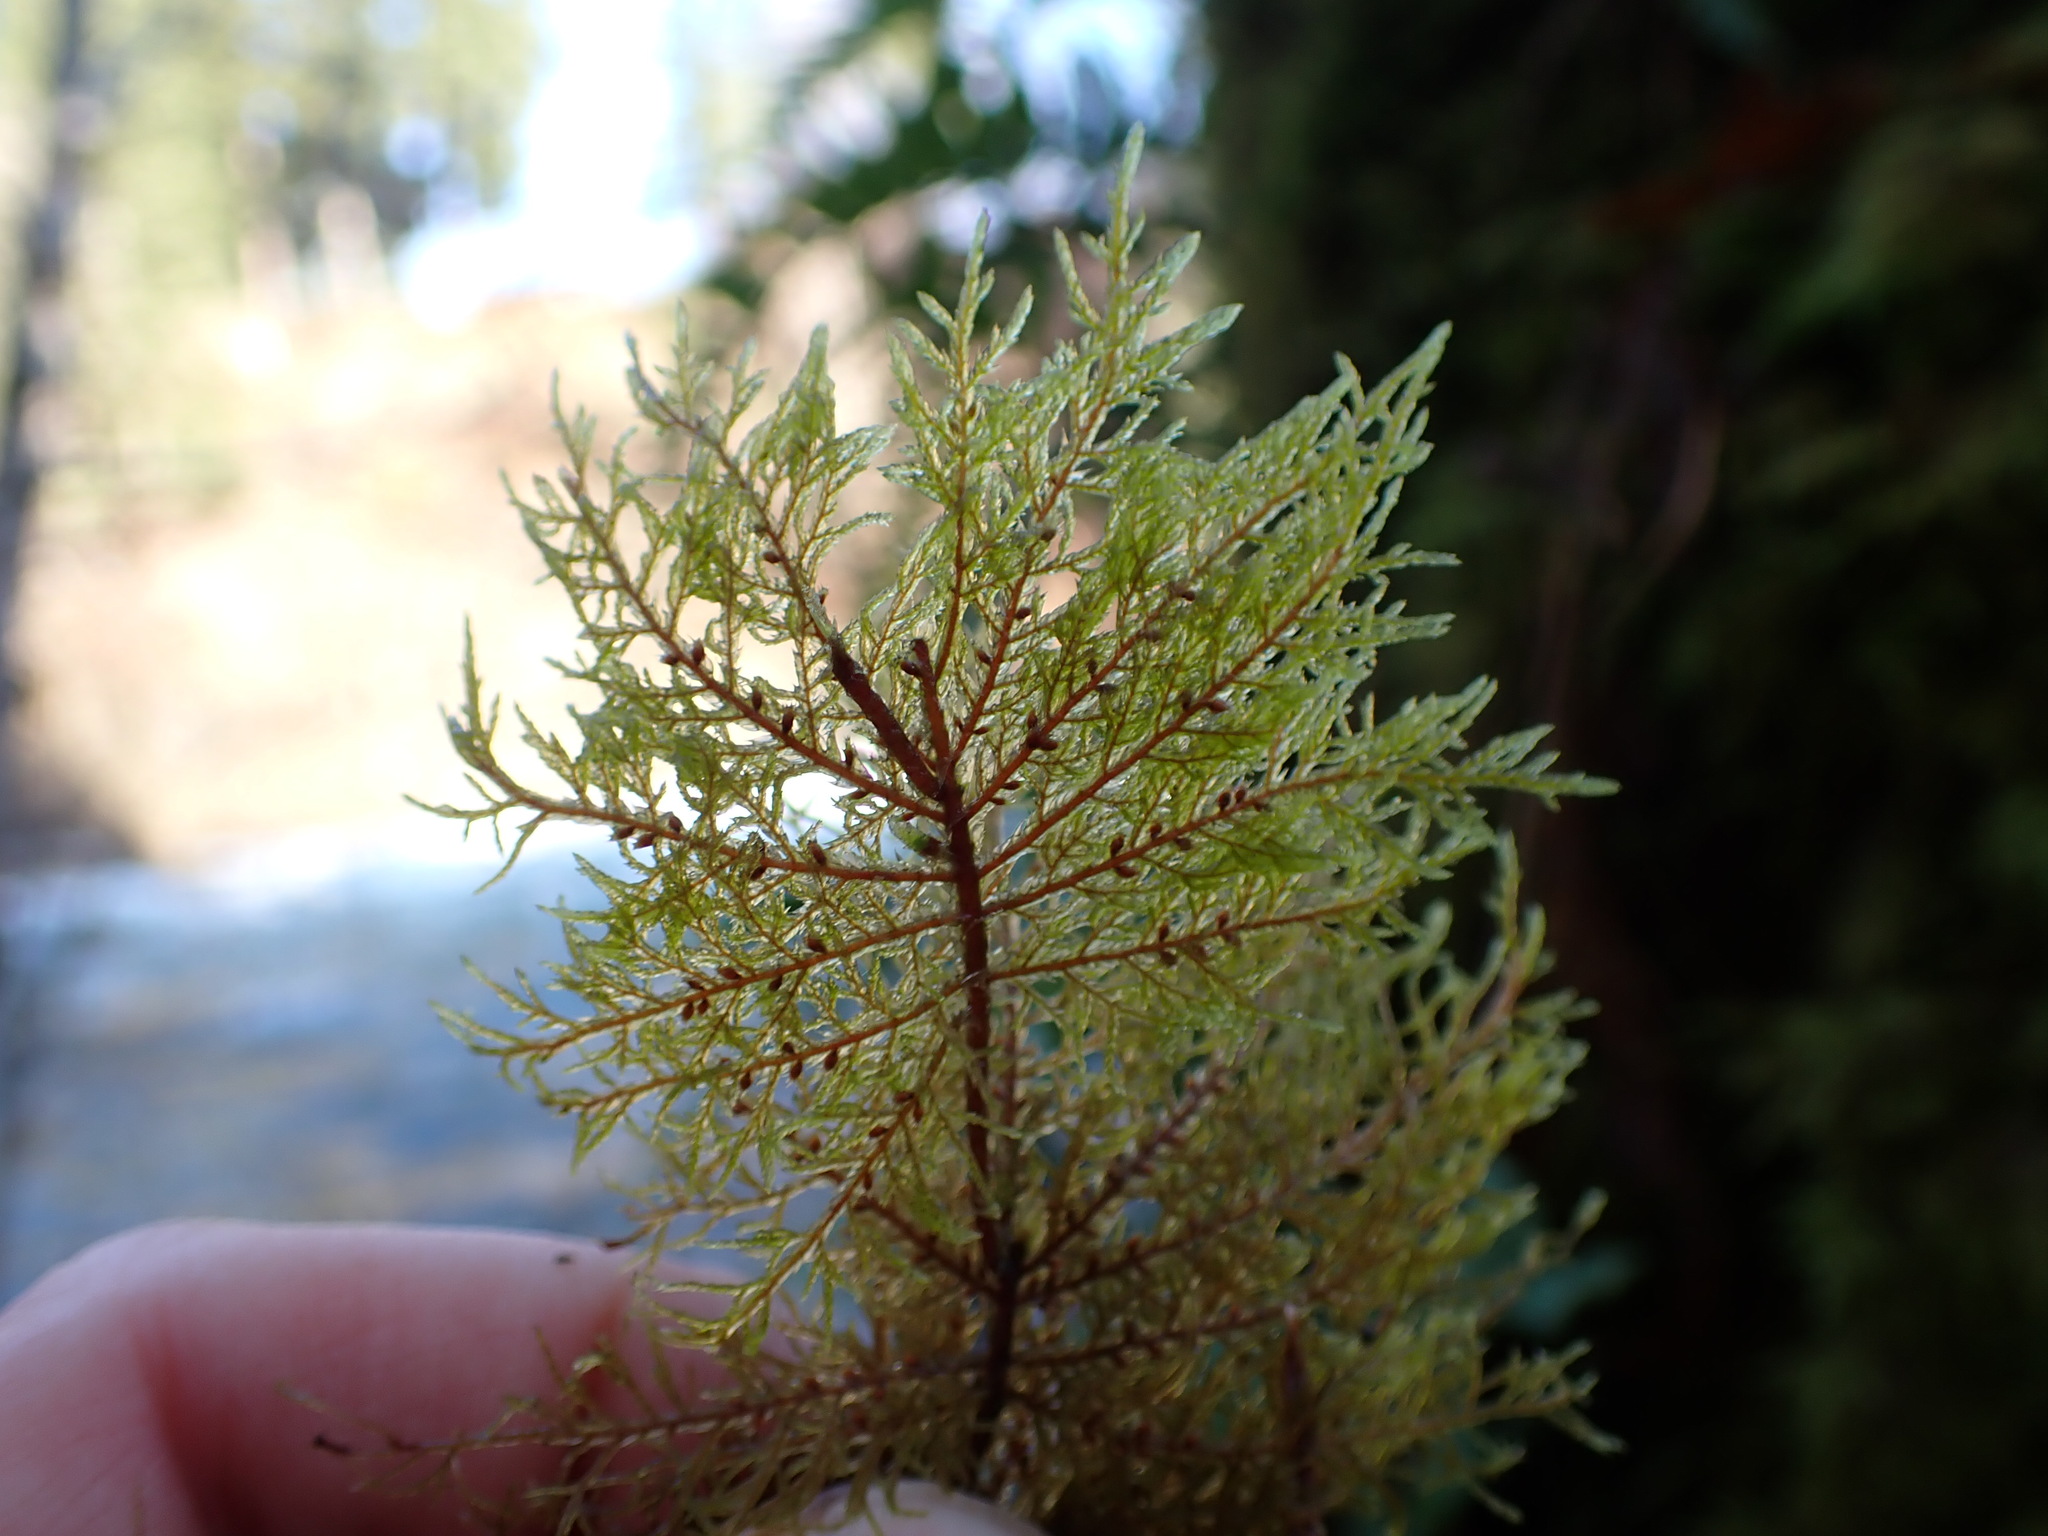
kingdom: Plantae
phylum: Bryophyta
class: Bryopsida
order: Hypnales
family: Hylocomiaceae
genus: Hylocomium
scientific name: Hylocomium splendens
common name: Stairstep moss
